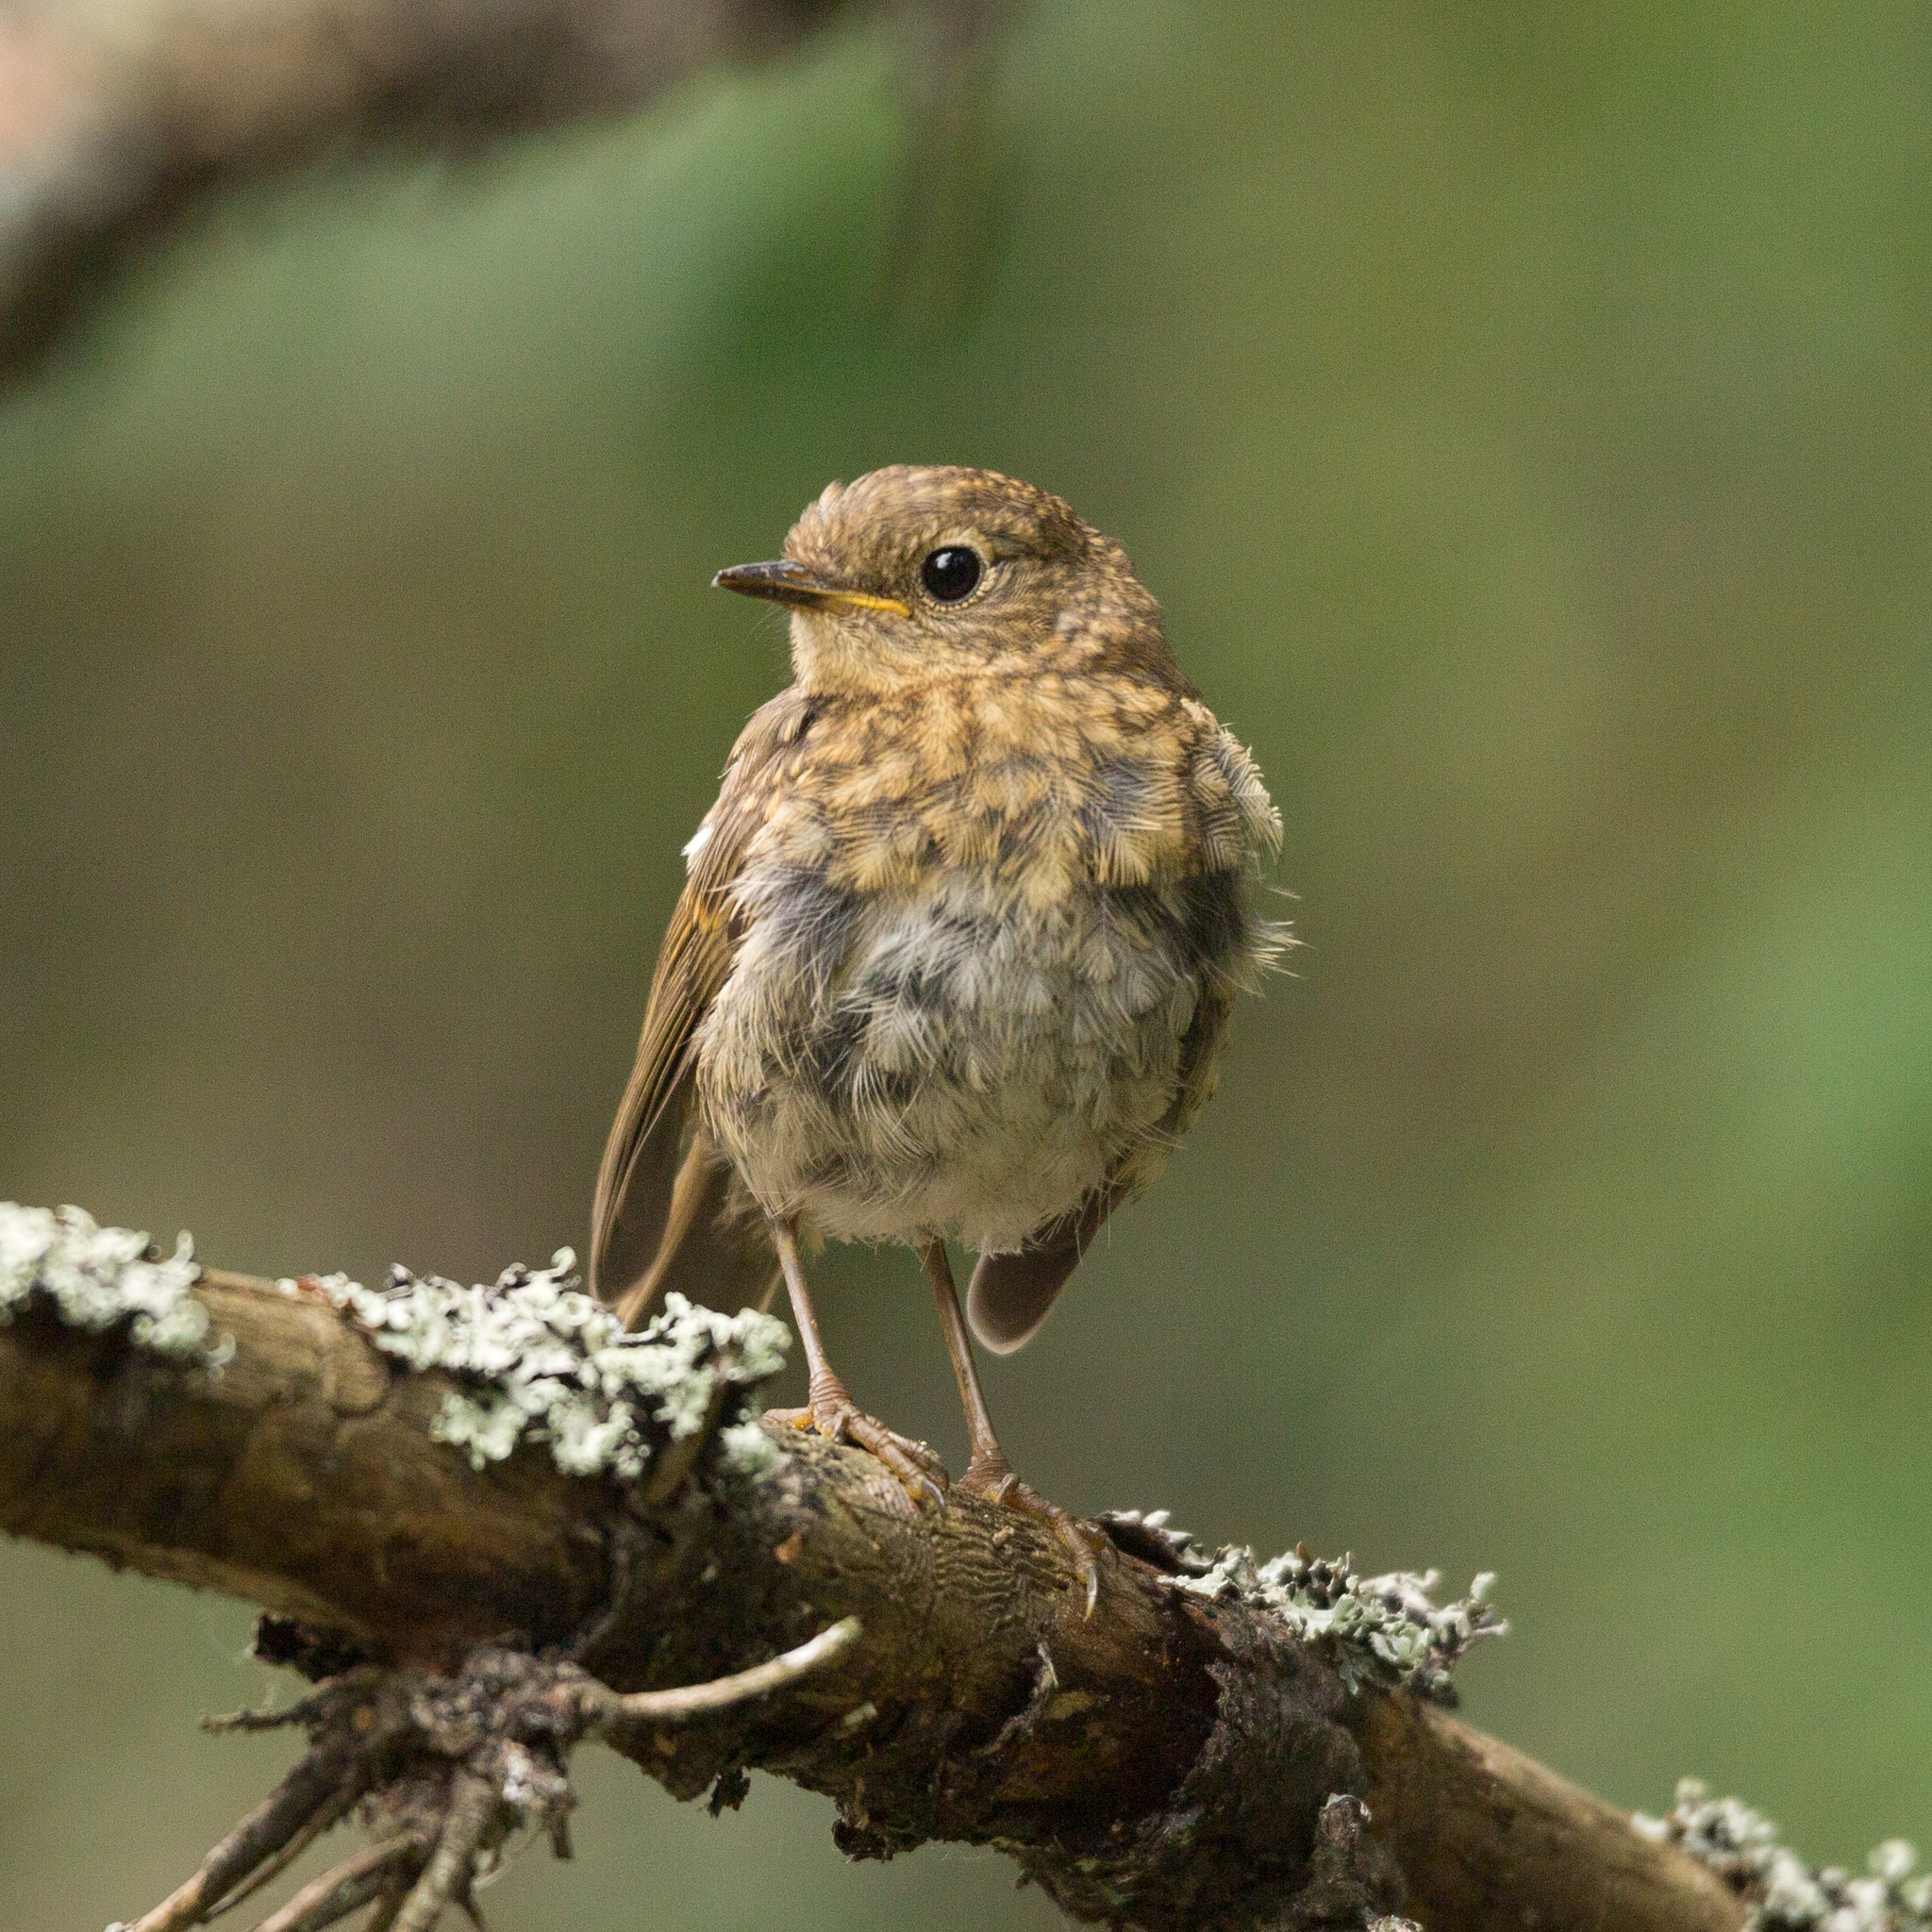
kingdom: Animalia
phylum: Chordata
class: Aves
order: Passeriformes
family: Muscicapidae
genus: Erithacus
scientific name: Erithacus rubecula
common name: European robin
